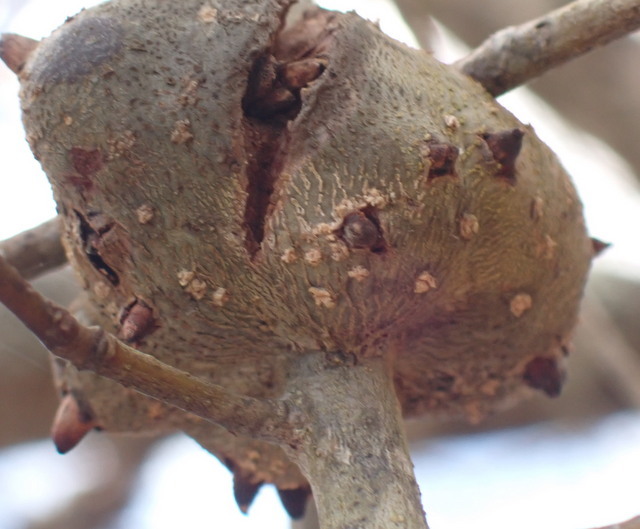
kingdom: Animalia
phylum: Arthropoda
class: Insecta
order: Hymenoptera
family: Cynipidae
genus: Callirhytis
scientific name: Callirhytis
